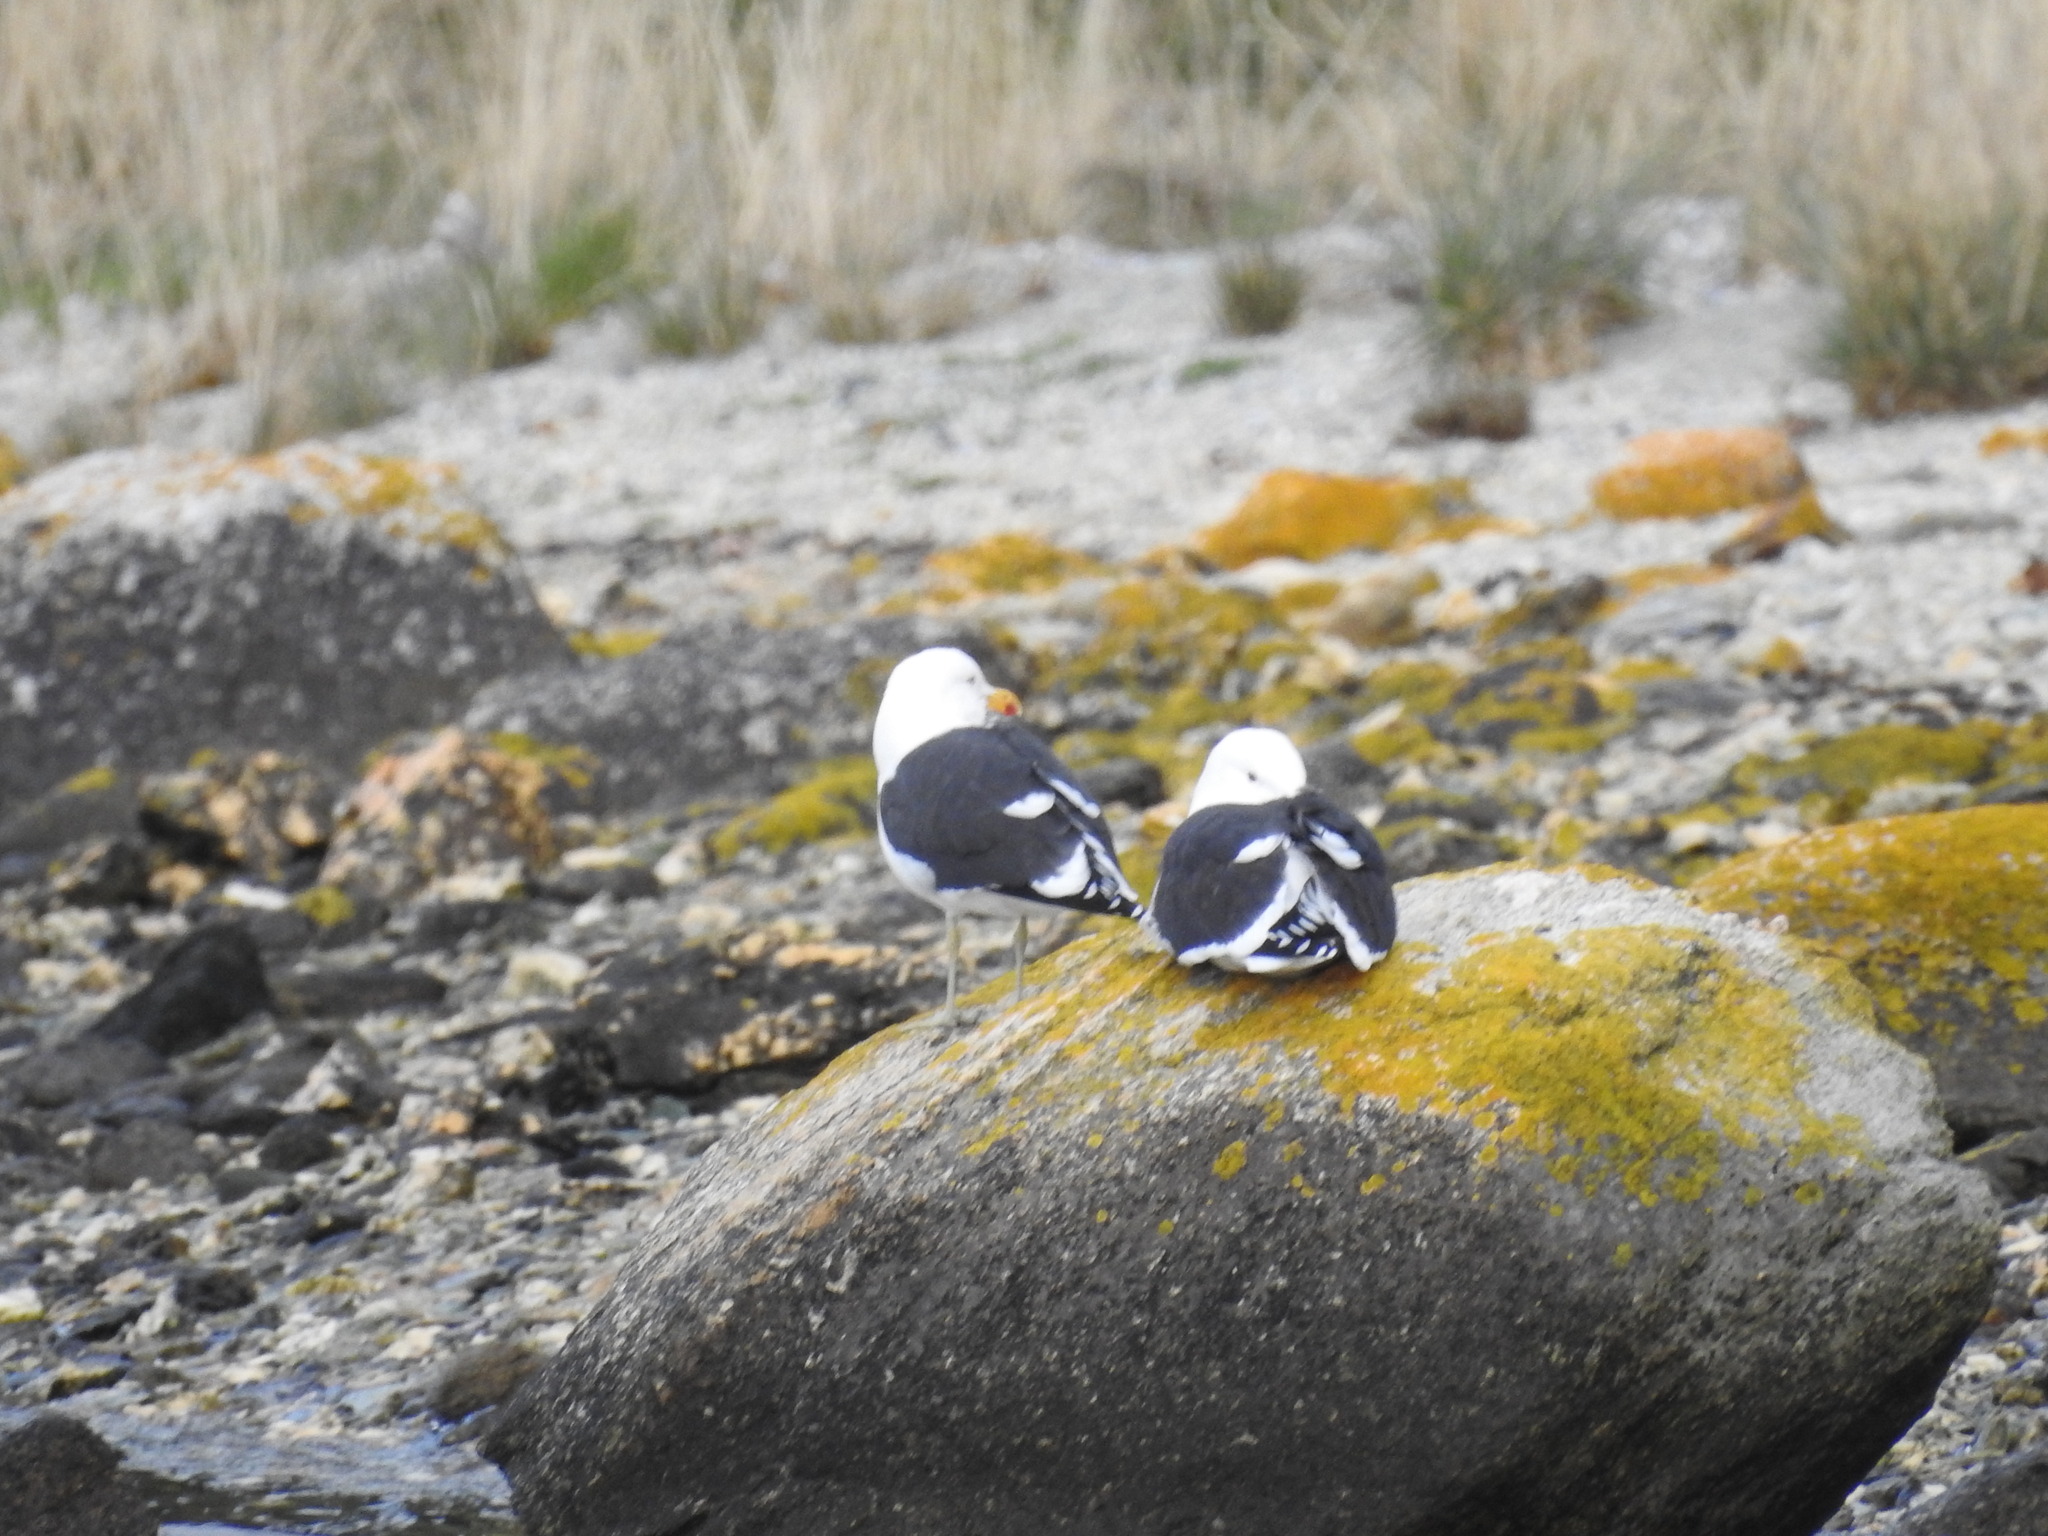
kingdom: Animalia
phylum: Chordata
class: Aves
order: Charadriiformes
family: Laridae
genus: Larus
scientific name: Larus dominicanus
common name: Kelp gull
